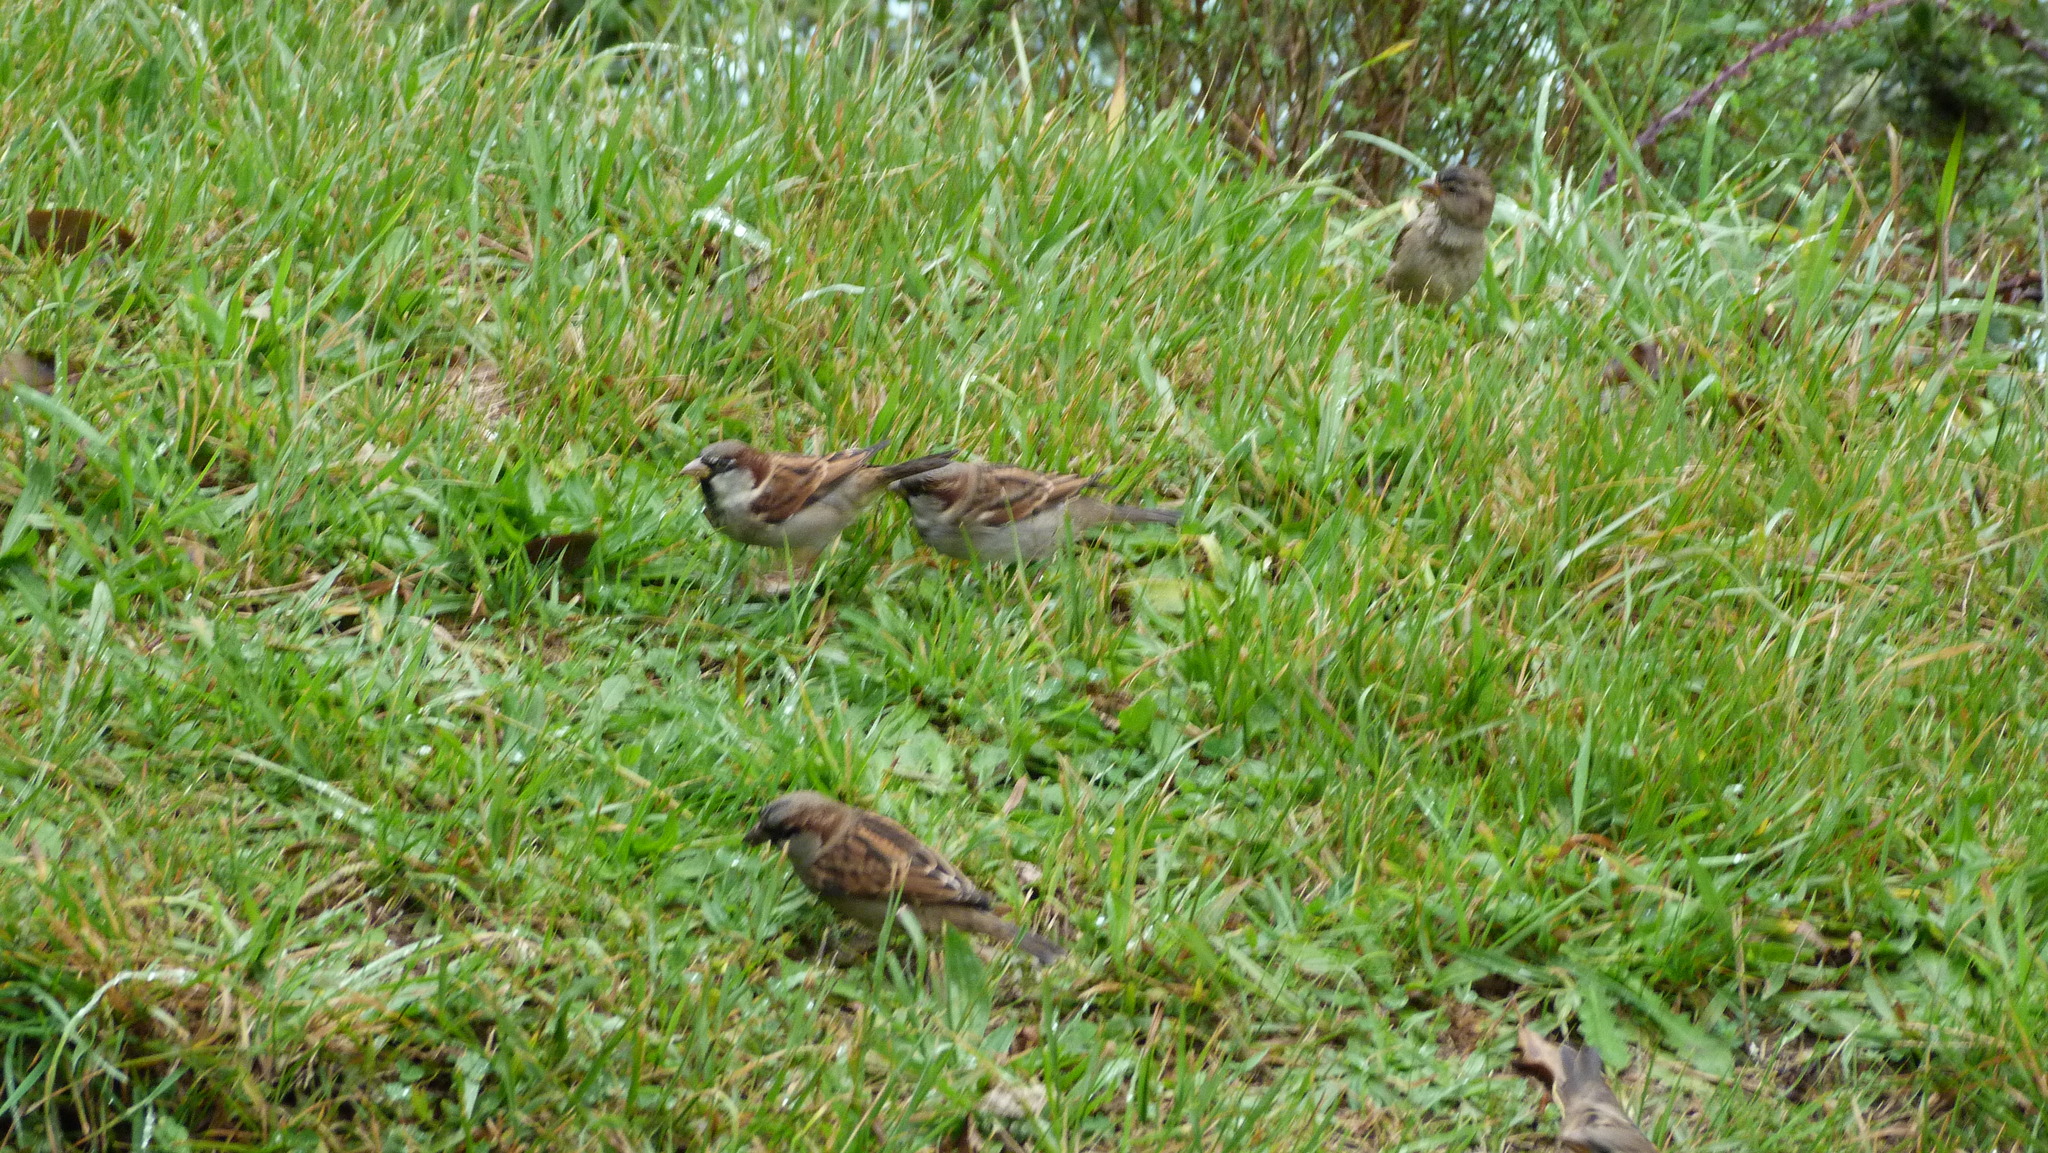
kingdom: Animalia
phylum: Chordata
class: Aves
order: Passeriformes
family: Passeridae
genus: Passer
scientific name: Passer domesticus
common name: House sparrow
